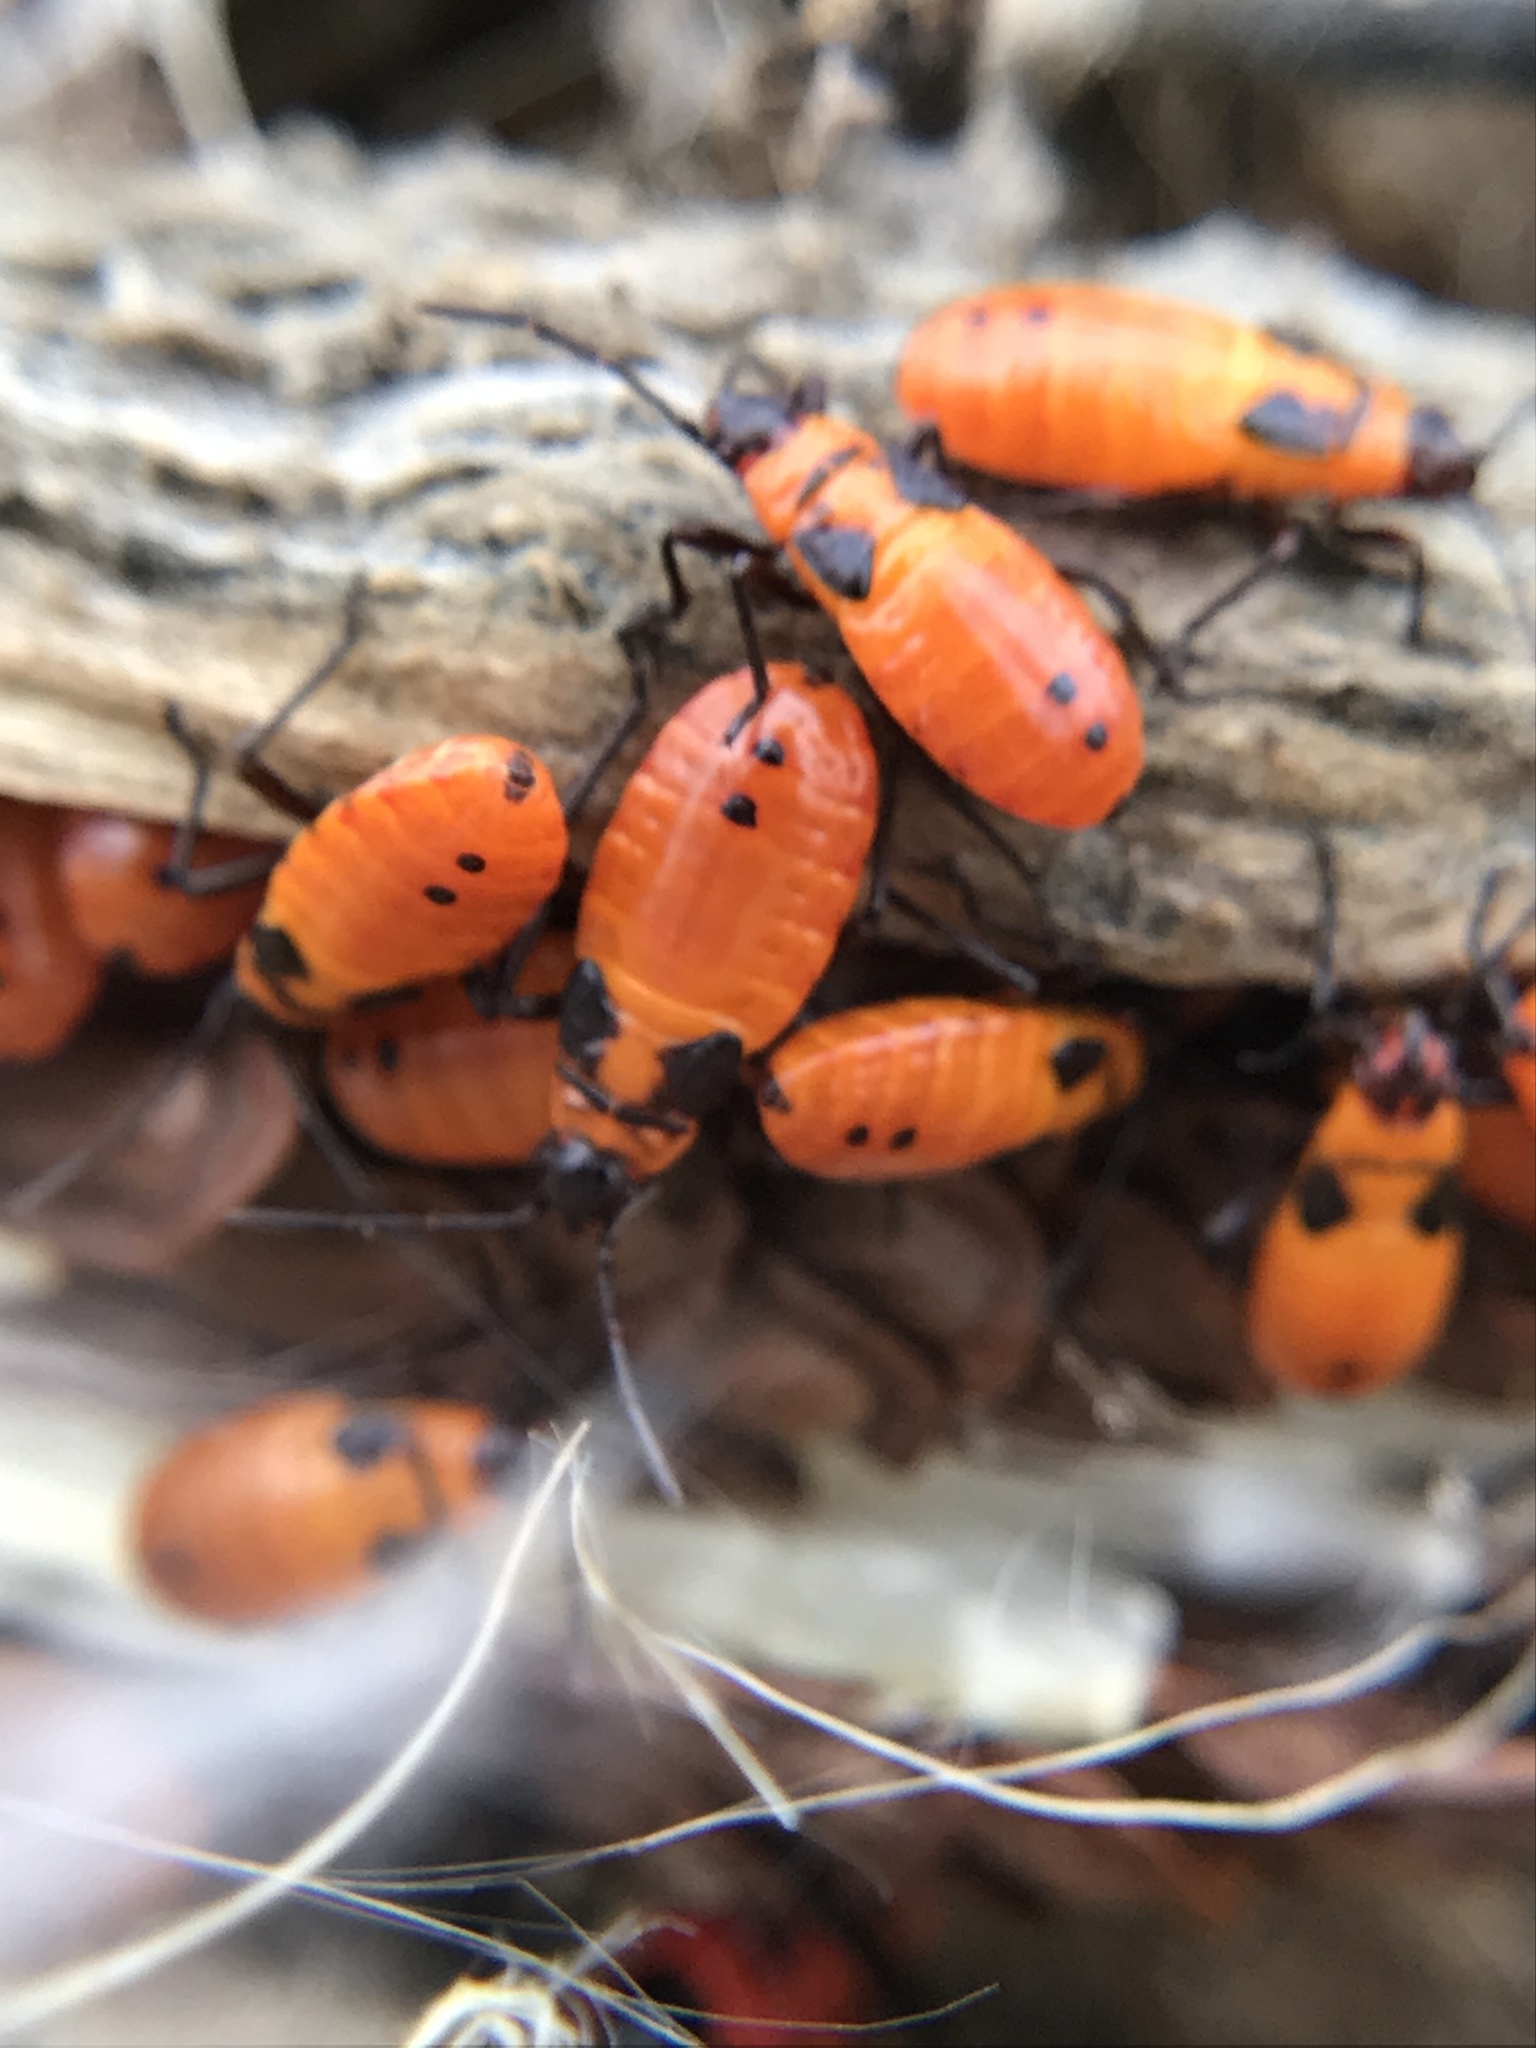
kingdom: Animalia
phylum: Arthropoda
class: Insecta
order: Hemiptera
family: Lygaeidae
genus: Oncopeltus
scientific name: Oncopeltus fasciatus
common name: Large milkweed bug
